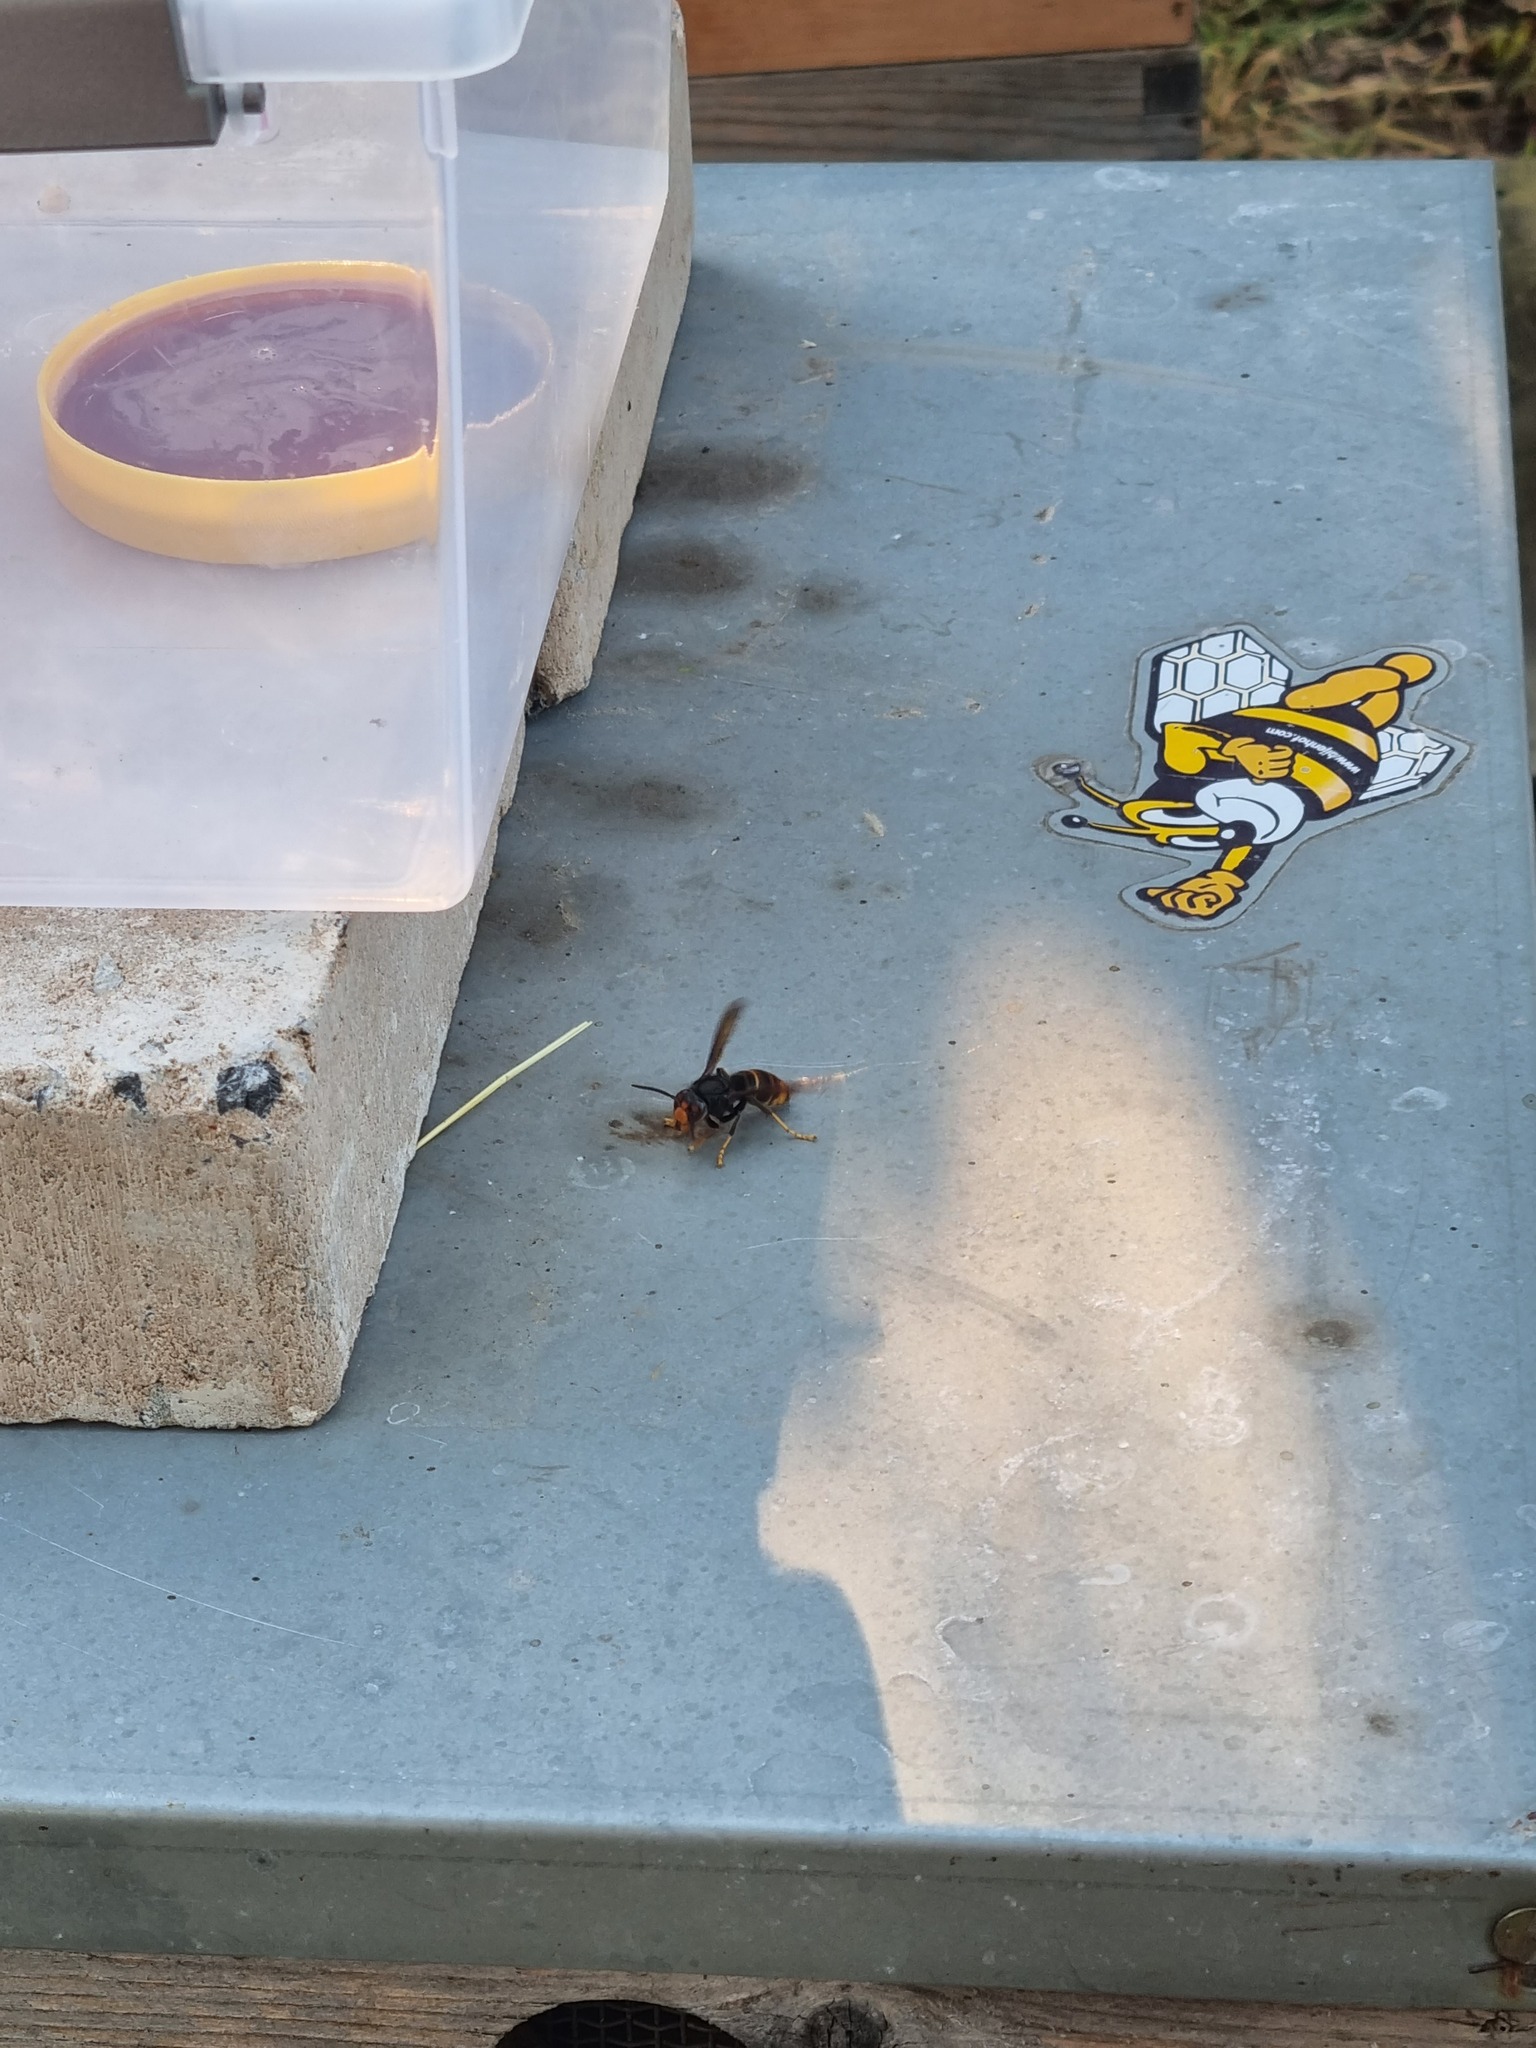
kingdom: Animalia
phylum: Arthropoda
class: Insecta
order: Hymenoptera
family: Vespidae
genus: Vespa
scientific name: Vespa velutina
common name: Asian hornet
